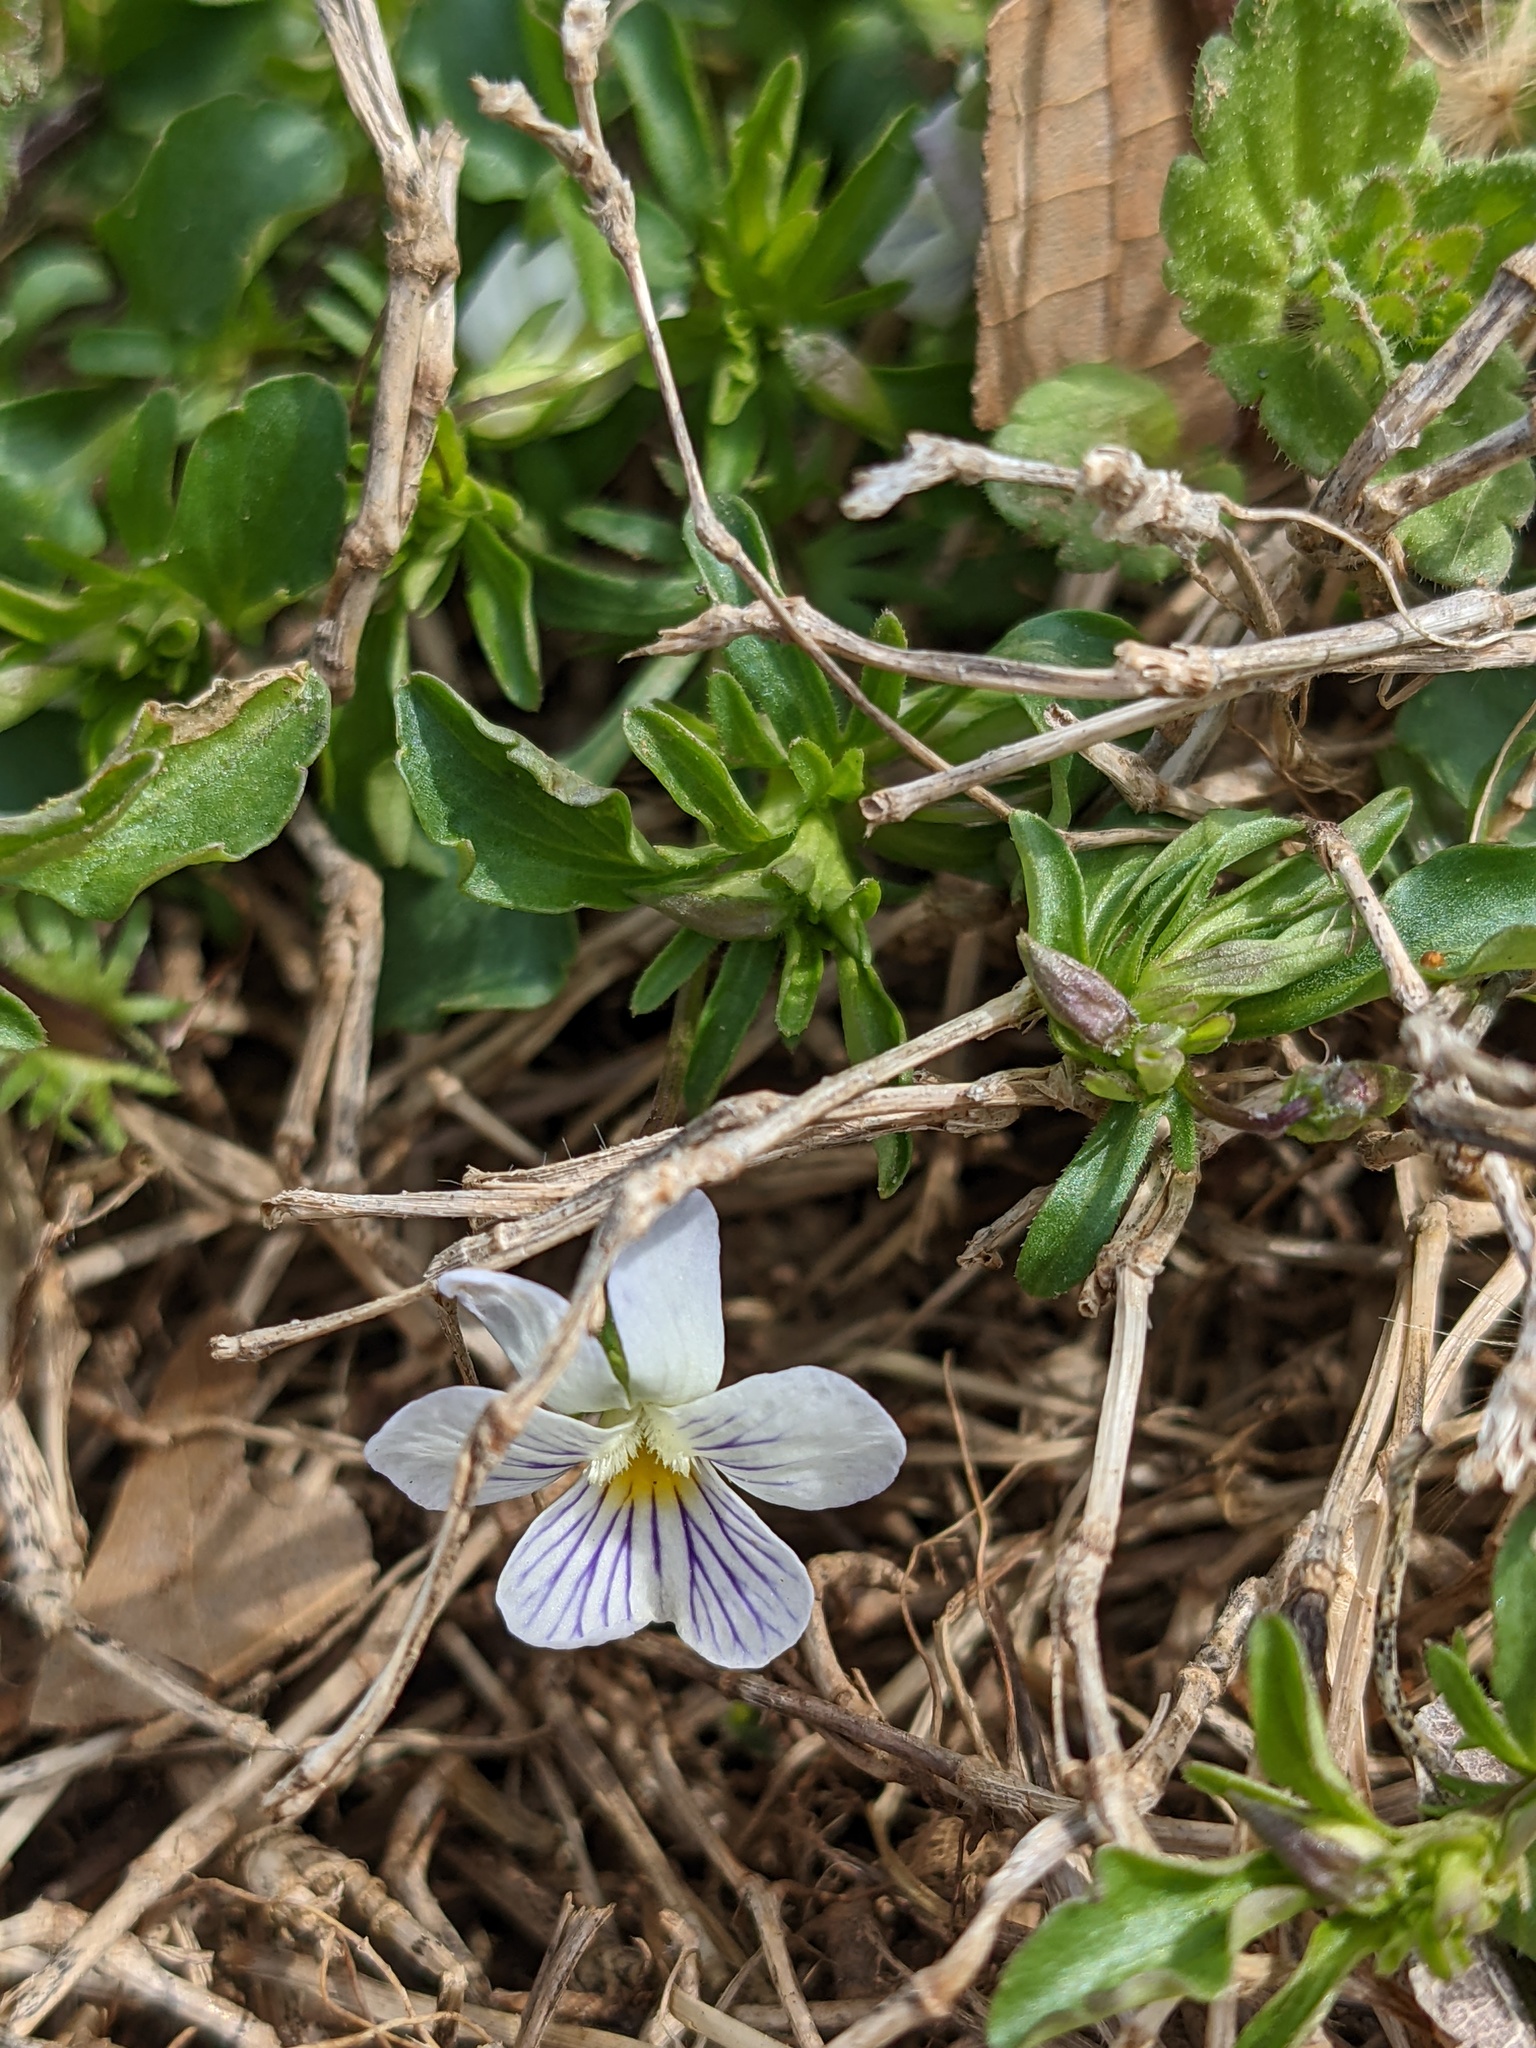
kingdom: Plantae
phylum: Tracheophyta
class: Magnoliopsida
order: Malpighiales
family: Violaceae
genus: Viola
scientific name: Viola rafinesquei
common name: American field pansy
